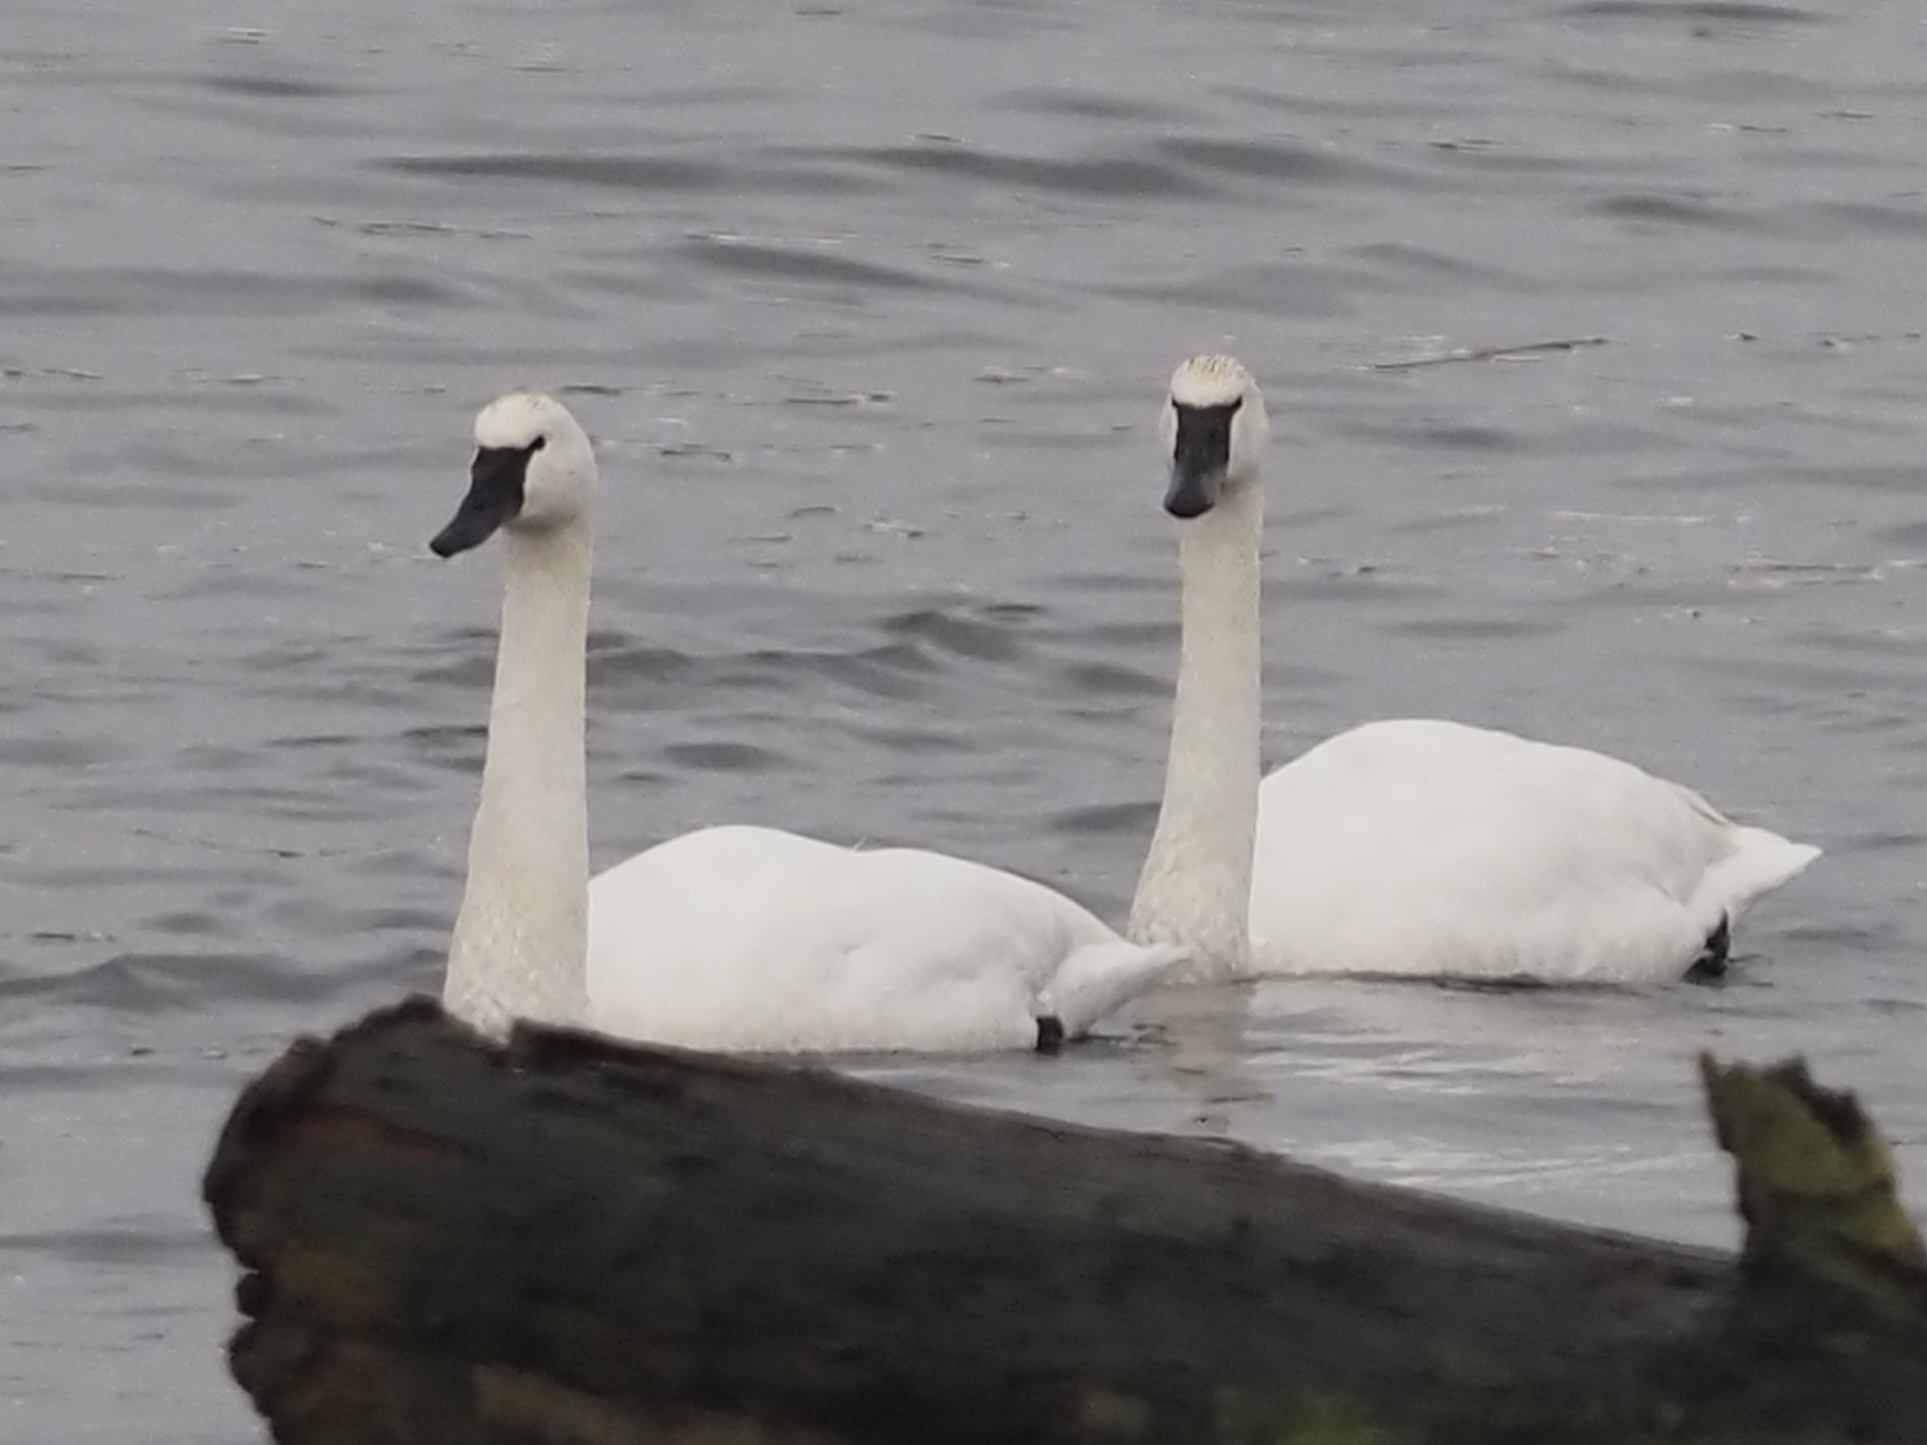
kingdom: Animalia
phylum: Chordata
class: Aves
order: Anseriformes
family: Anatidae
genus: Cygnus
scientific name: Cygnus buccinator
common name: Trumpeter swan
